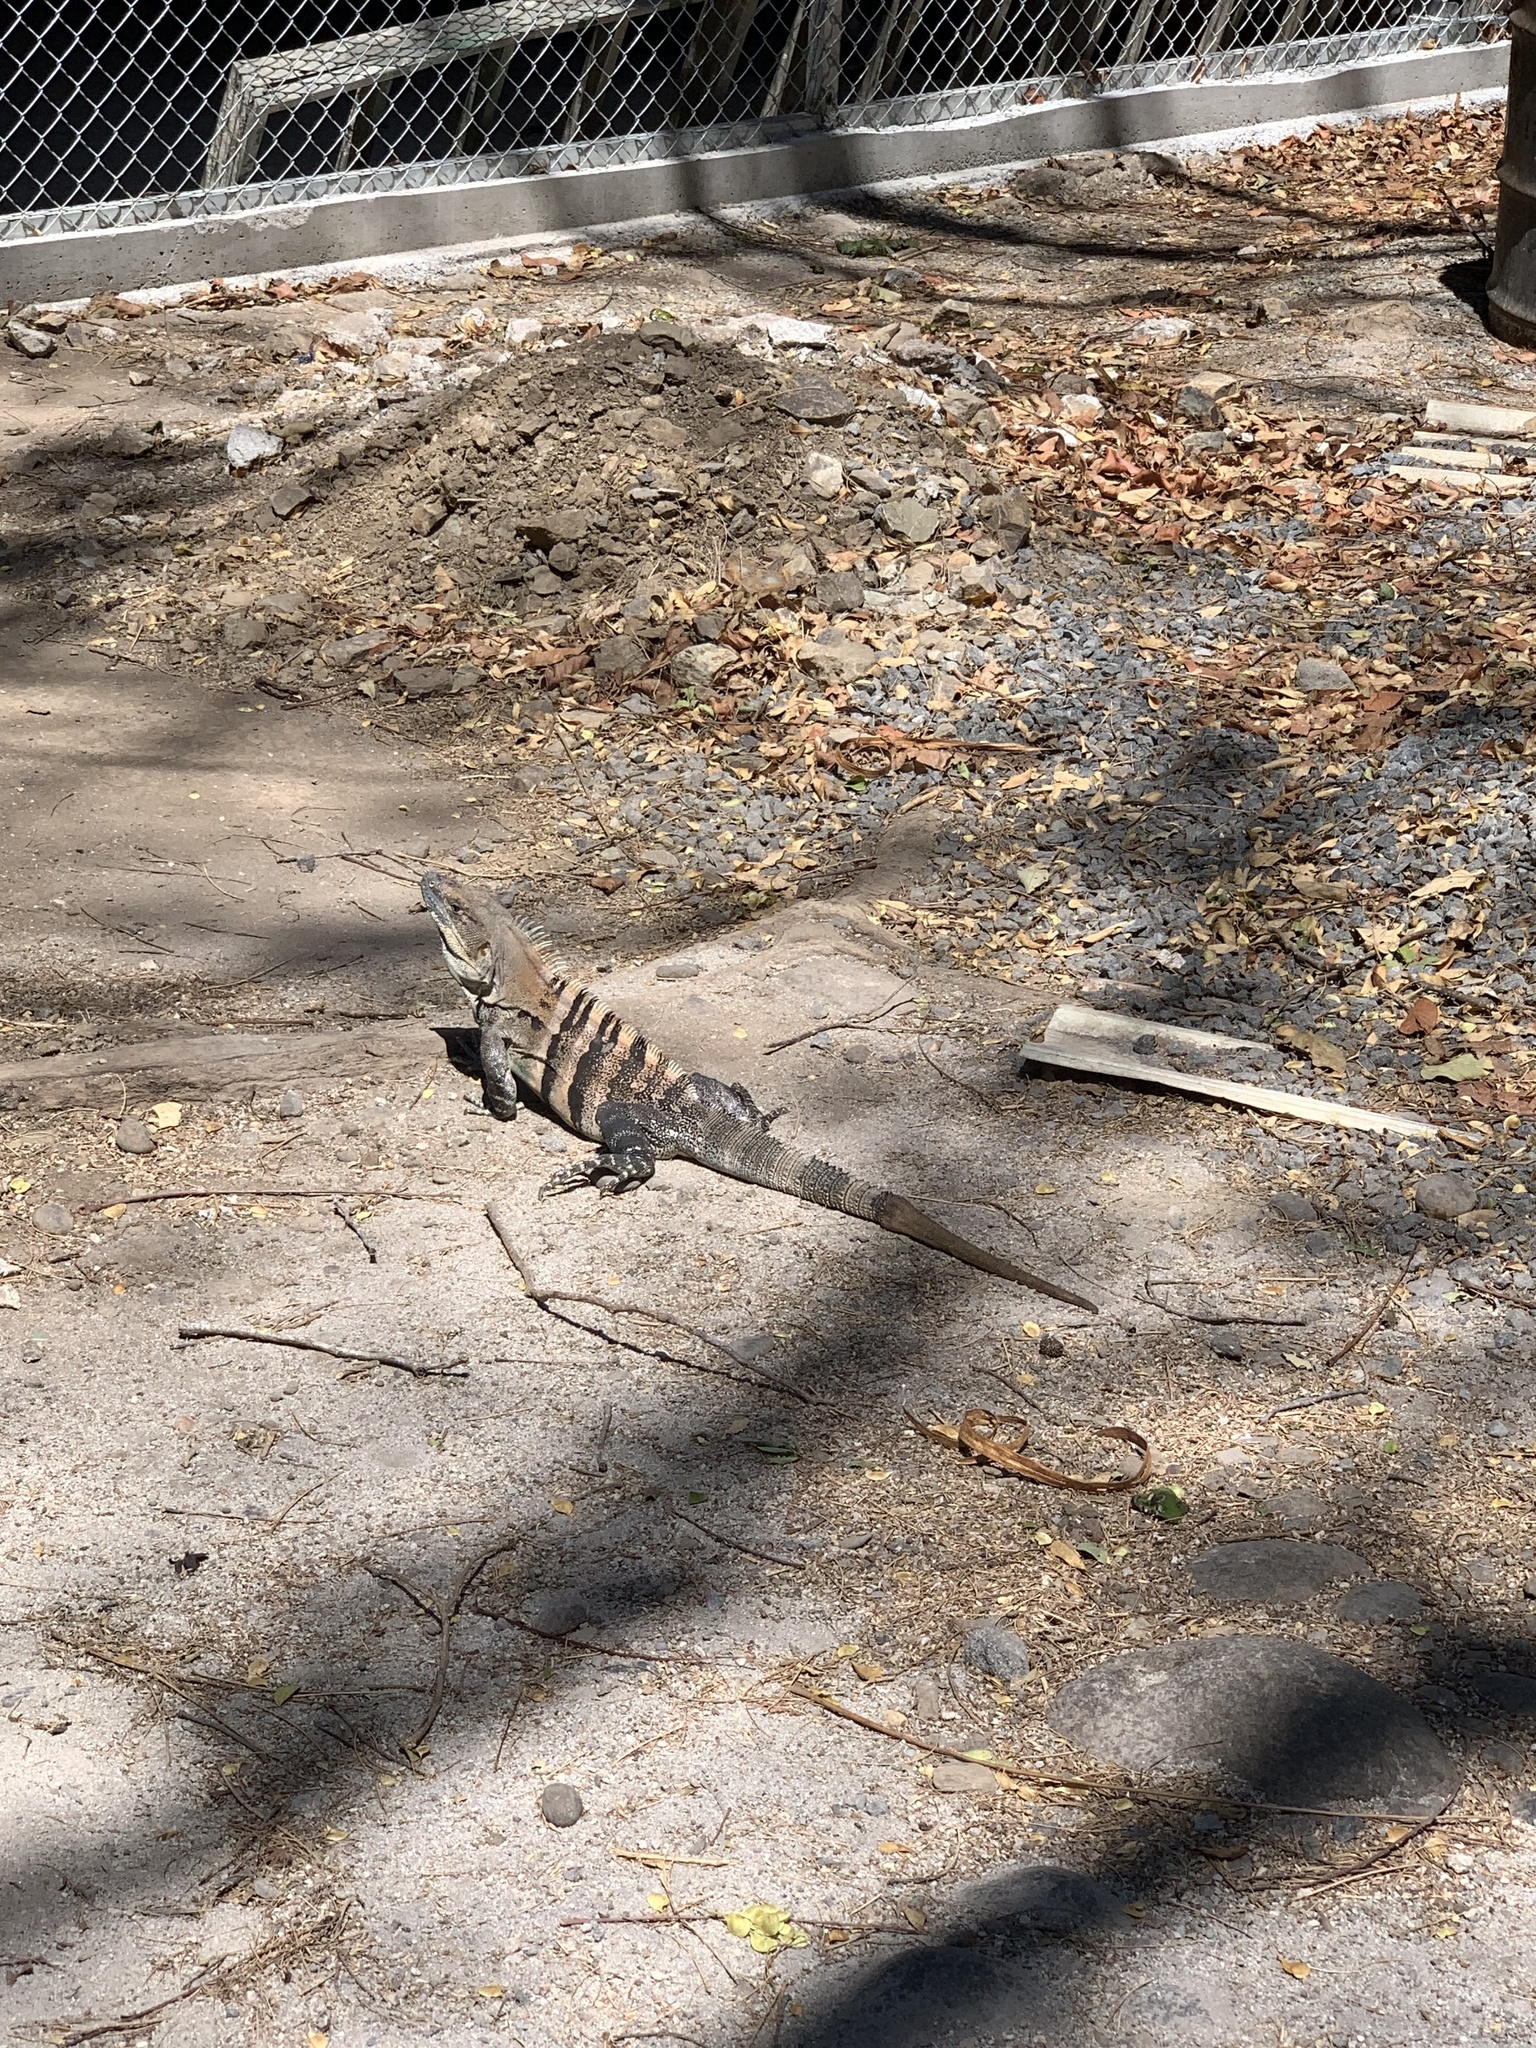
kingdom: Animalia
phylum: Chordata
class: Squamata
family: Iguanidae
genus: Ctenosaura
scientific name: Ctenosaura similis
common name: Black spiny-tailed iguana
